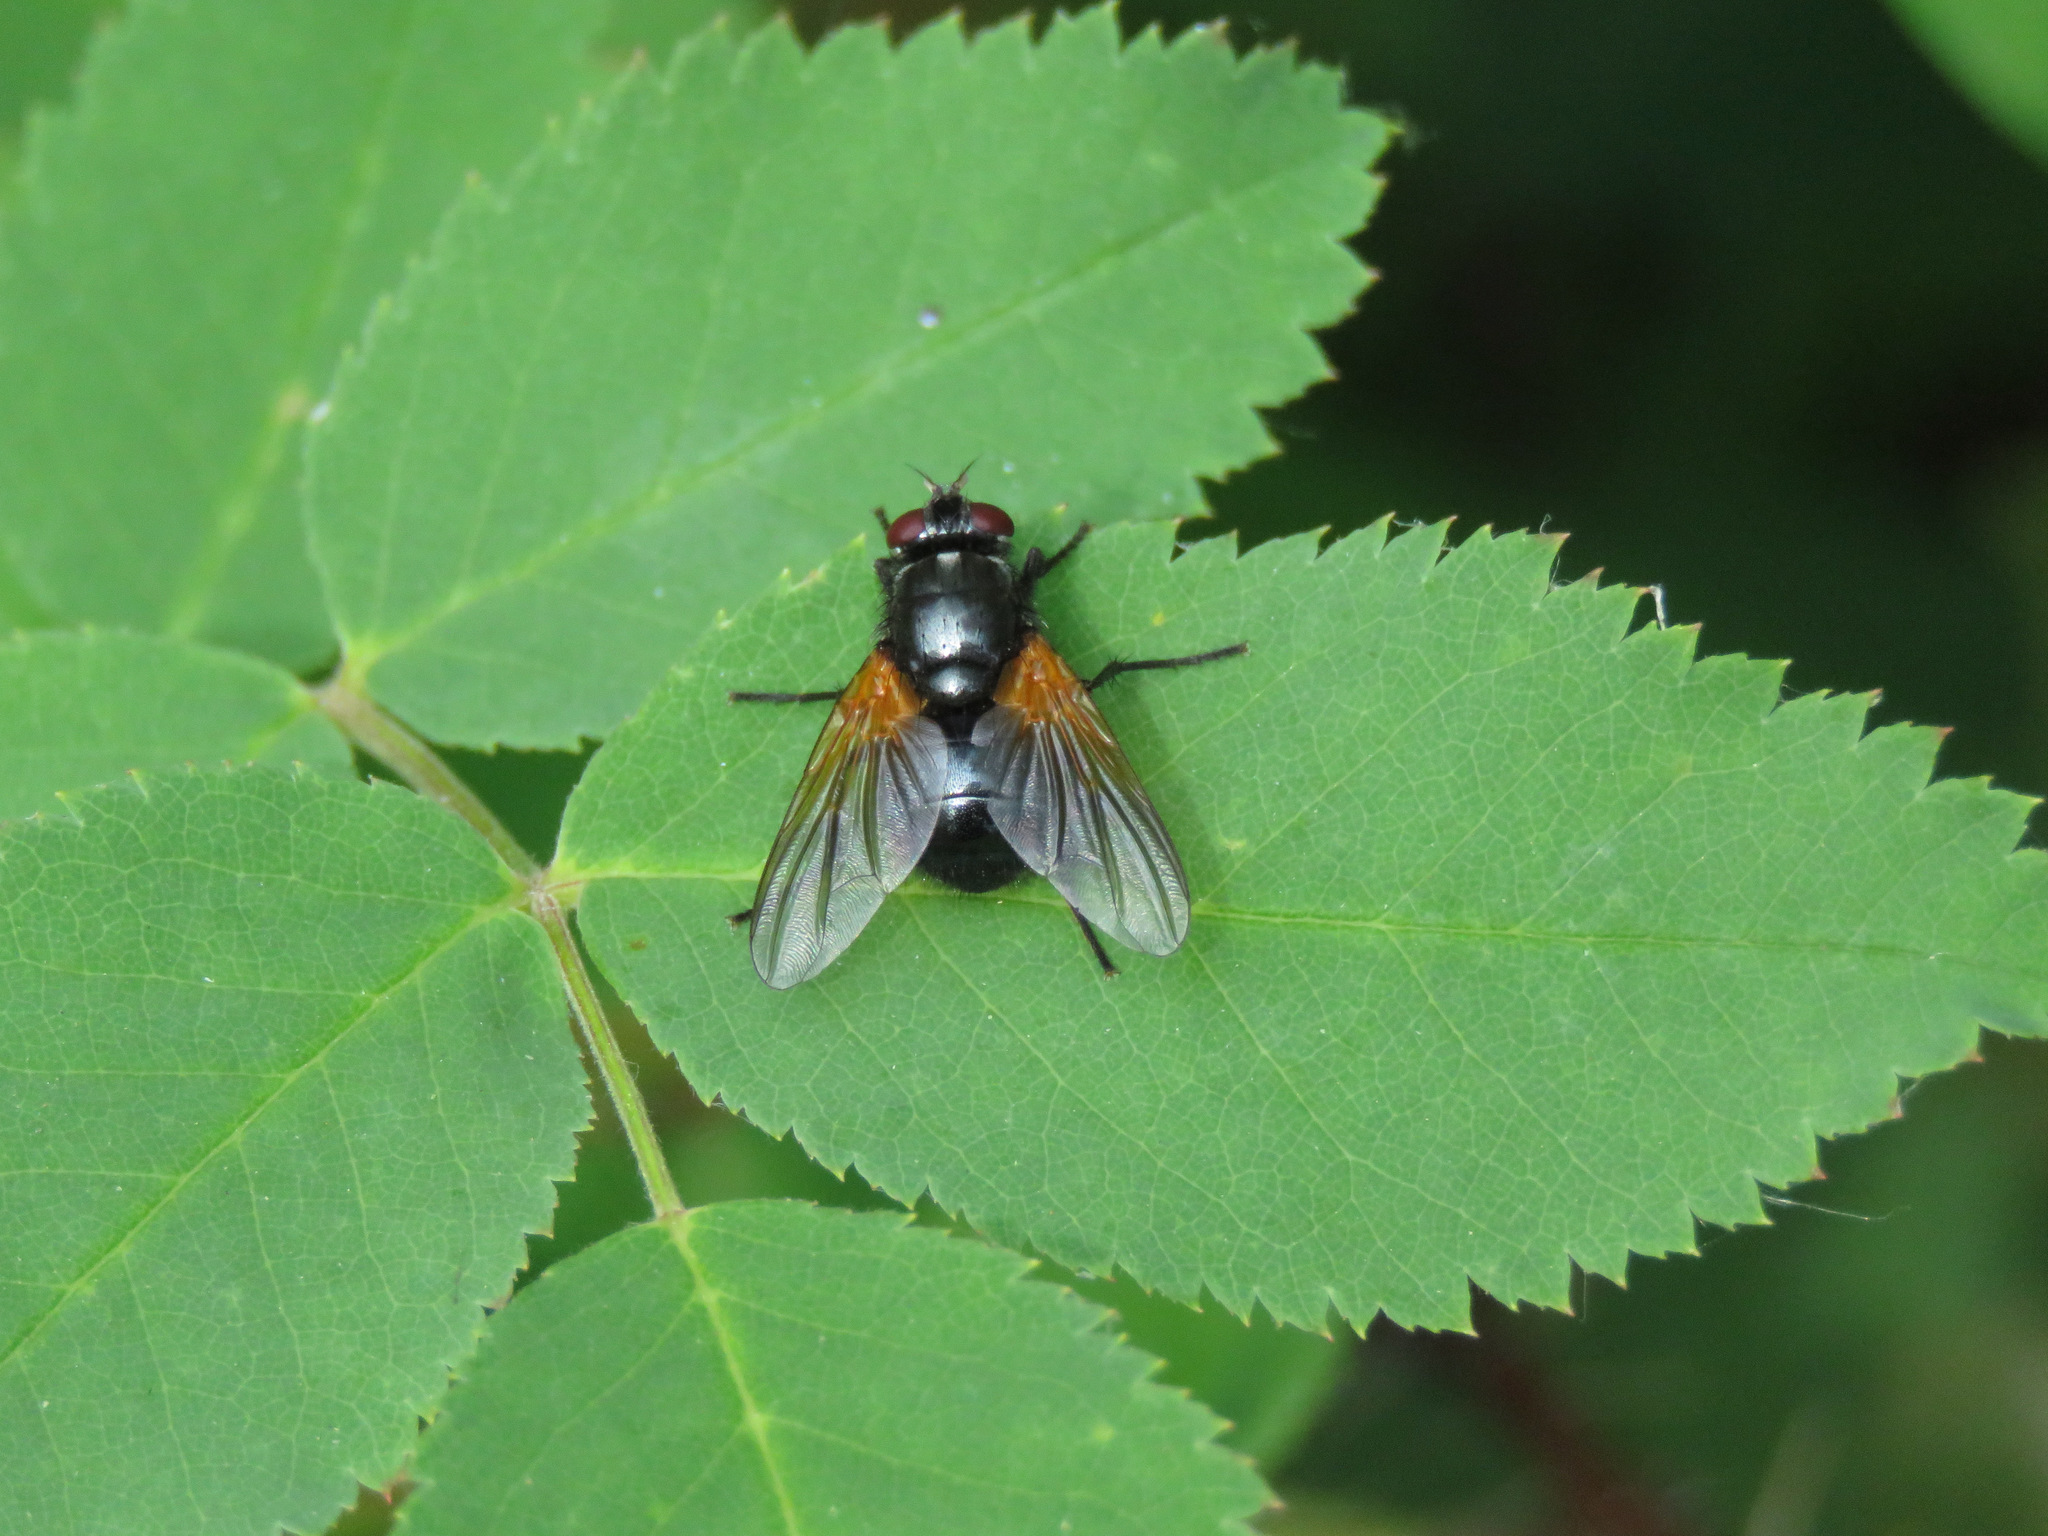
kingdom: Animalia
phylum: Arthropoda
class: Insecta
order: Diptera
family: Muscidae
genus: Mesembrina
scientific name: Mesembrina latreillii
